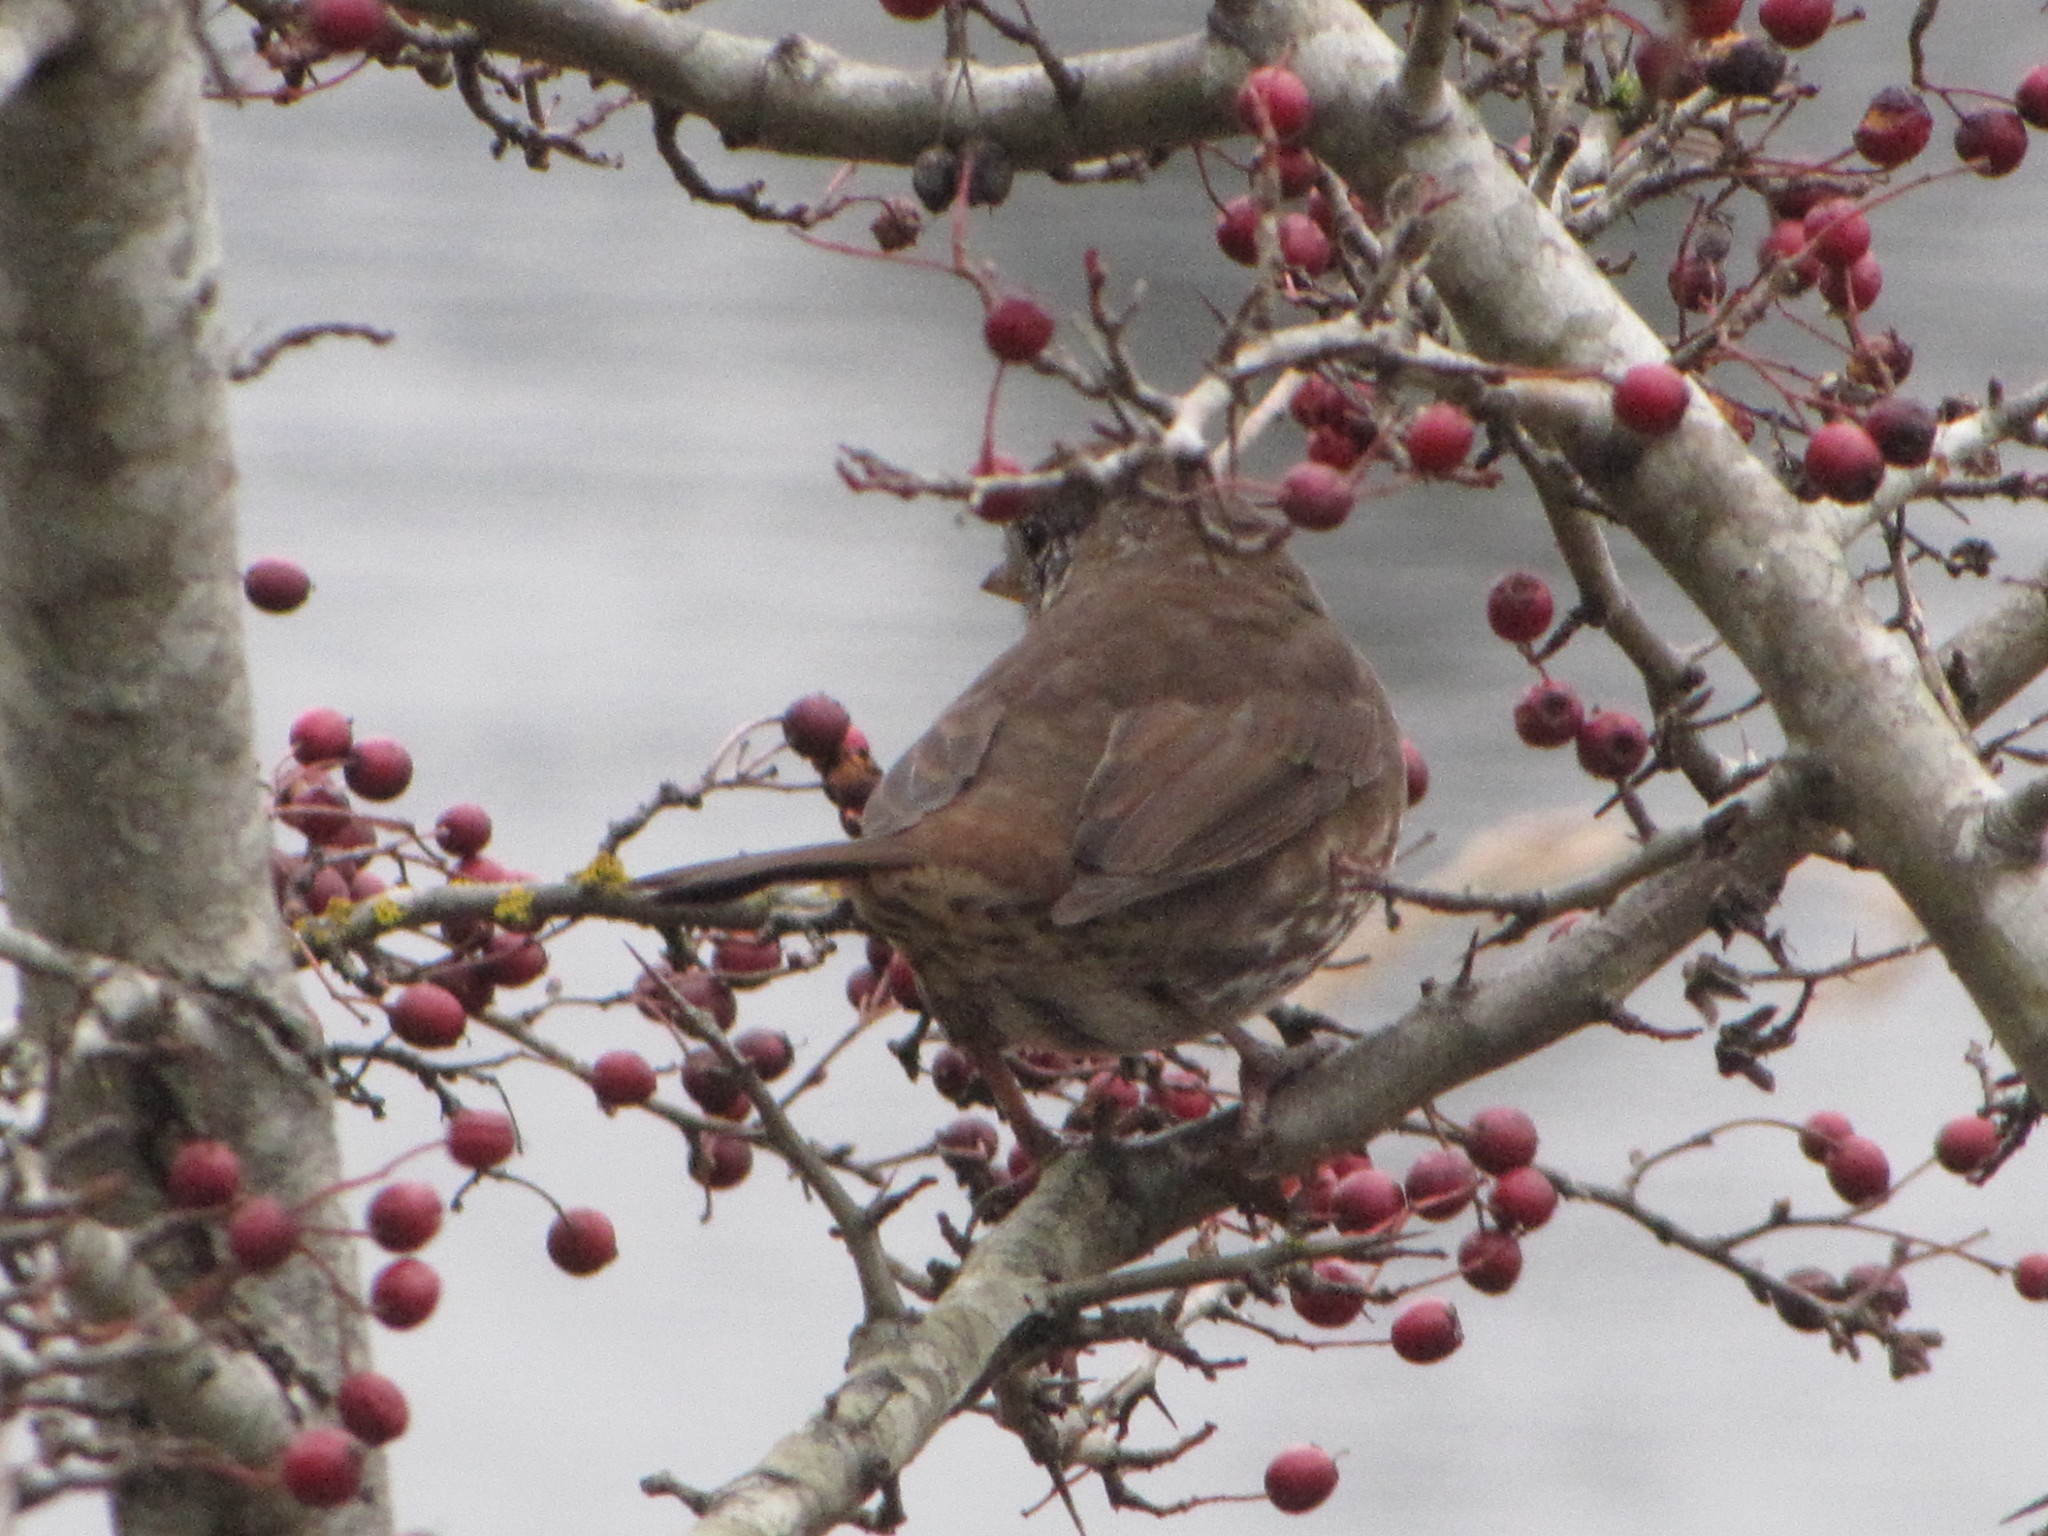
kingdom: Animalia
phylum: Chordata
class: Aves
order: Passeriformes
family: Passerellidae
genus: Passerella
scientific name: Passerella iliaca
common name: Fox sparrow
